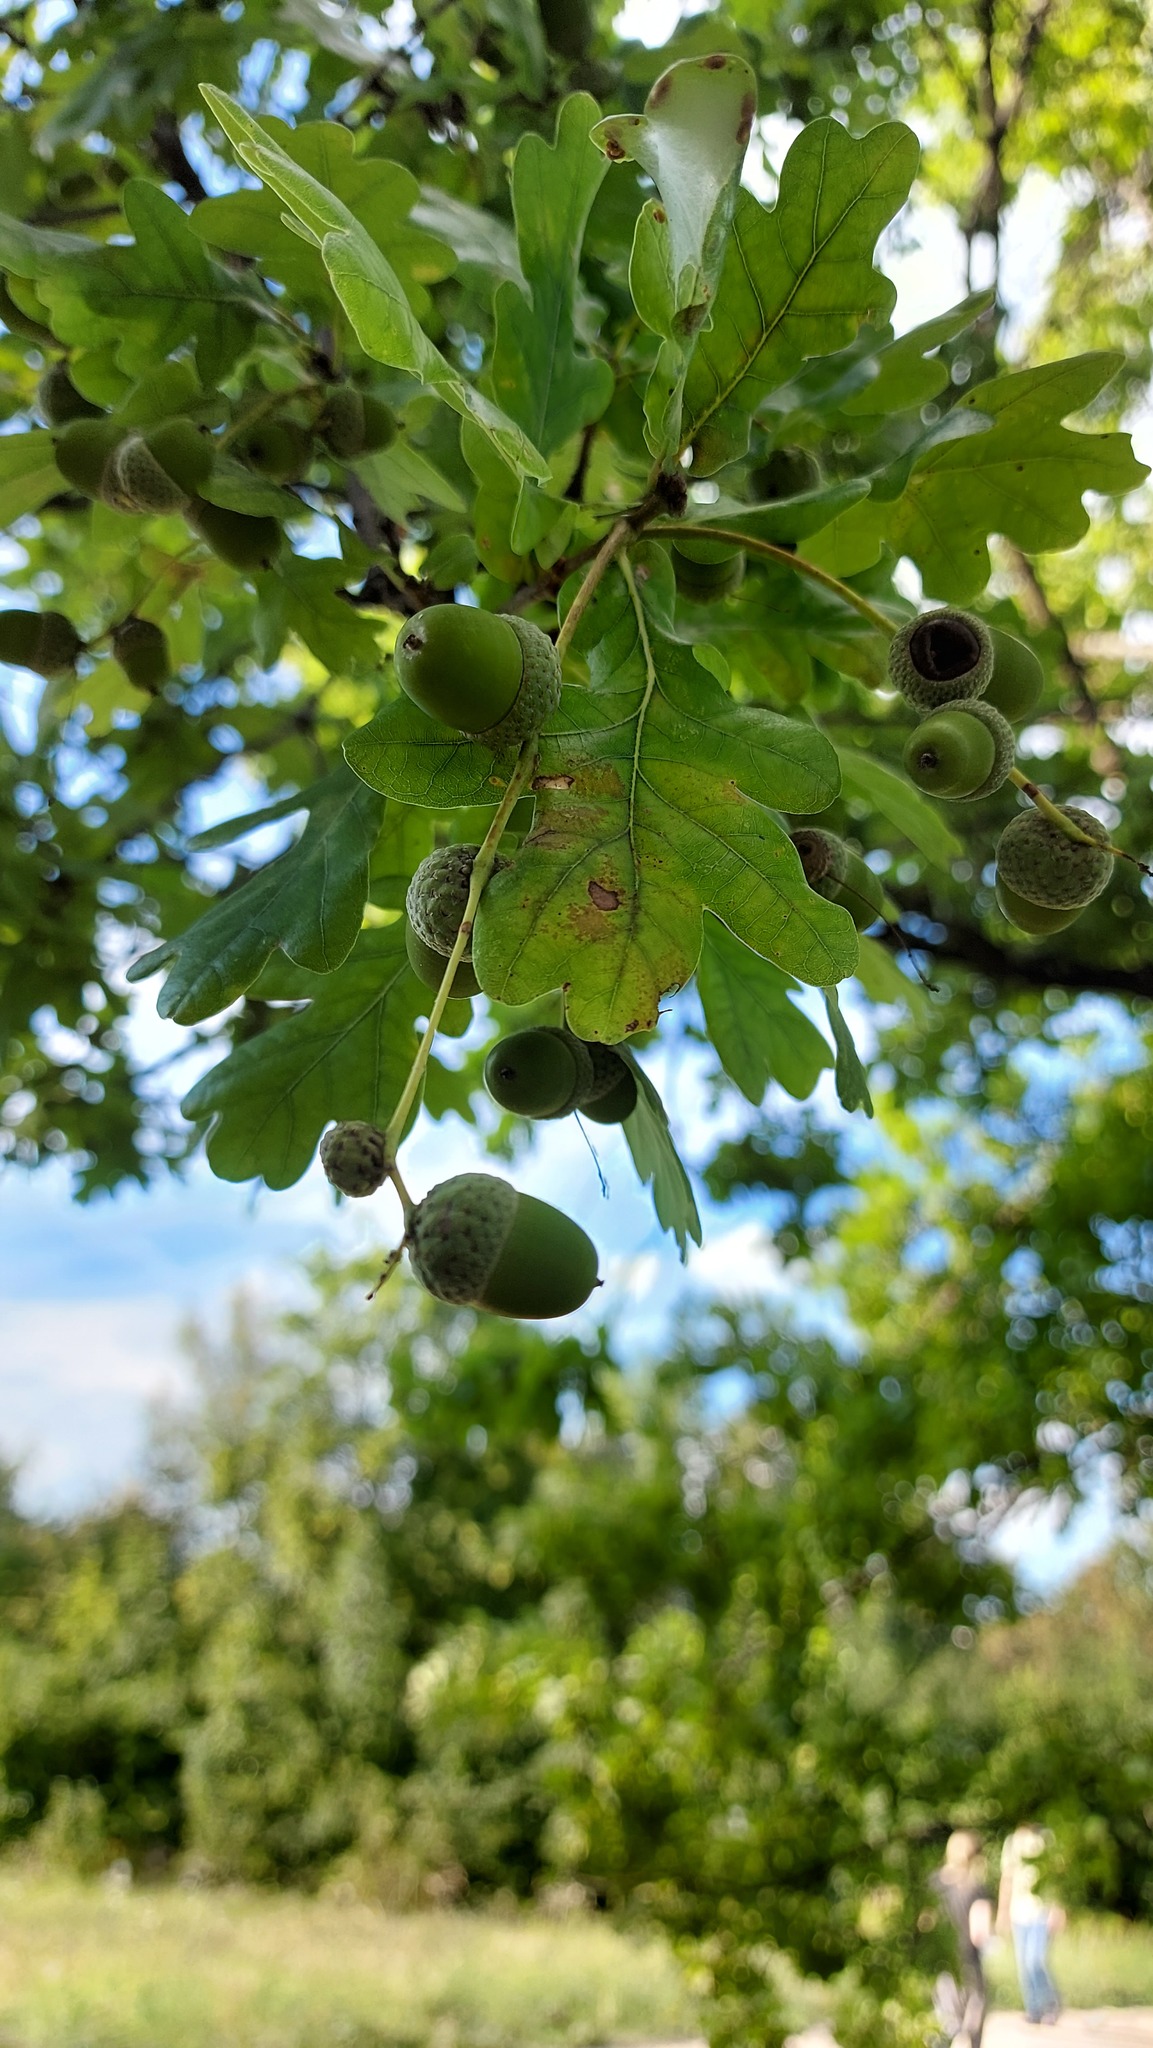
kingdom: Plantae
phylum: Tracheophyta
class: Magnoliopsida
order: Fagales
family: Fagaceae
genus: Quercus
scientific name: Quercus robur
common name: Pedunculate oak
